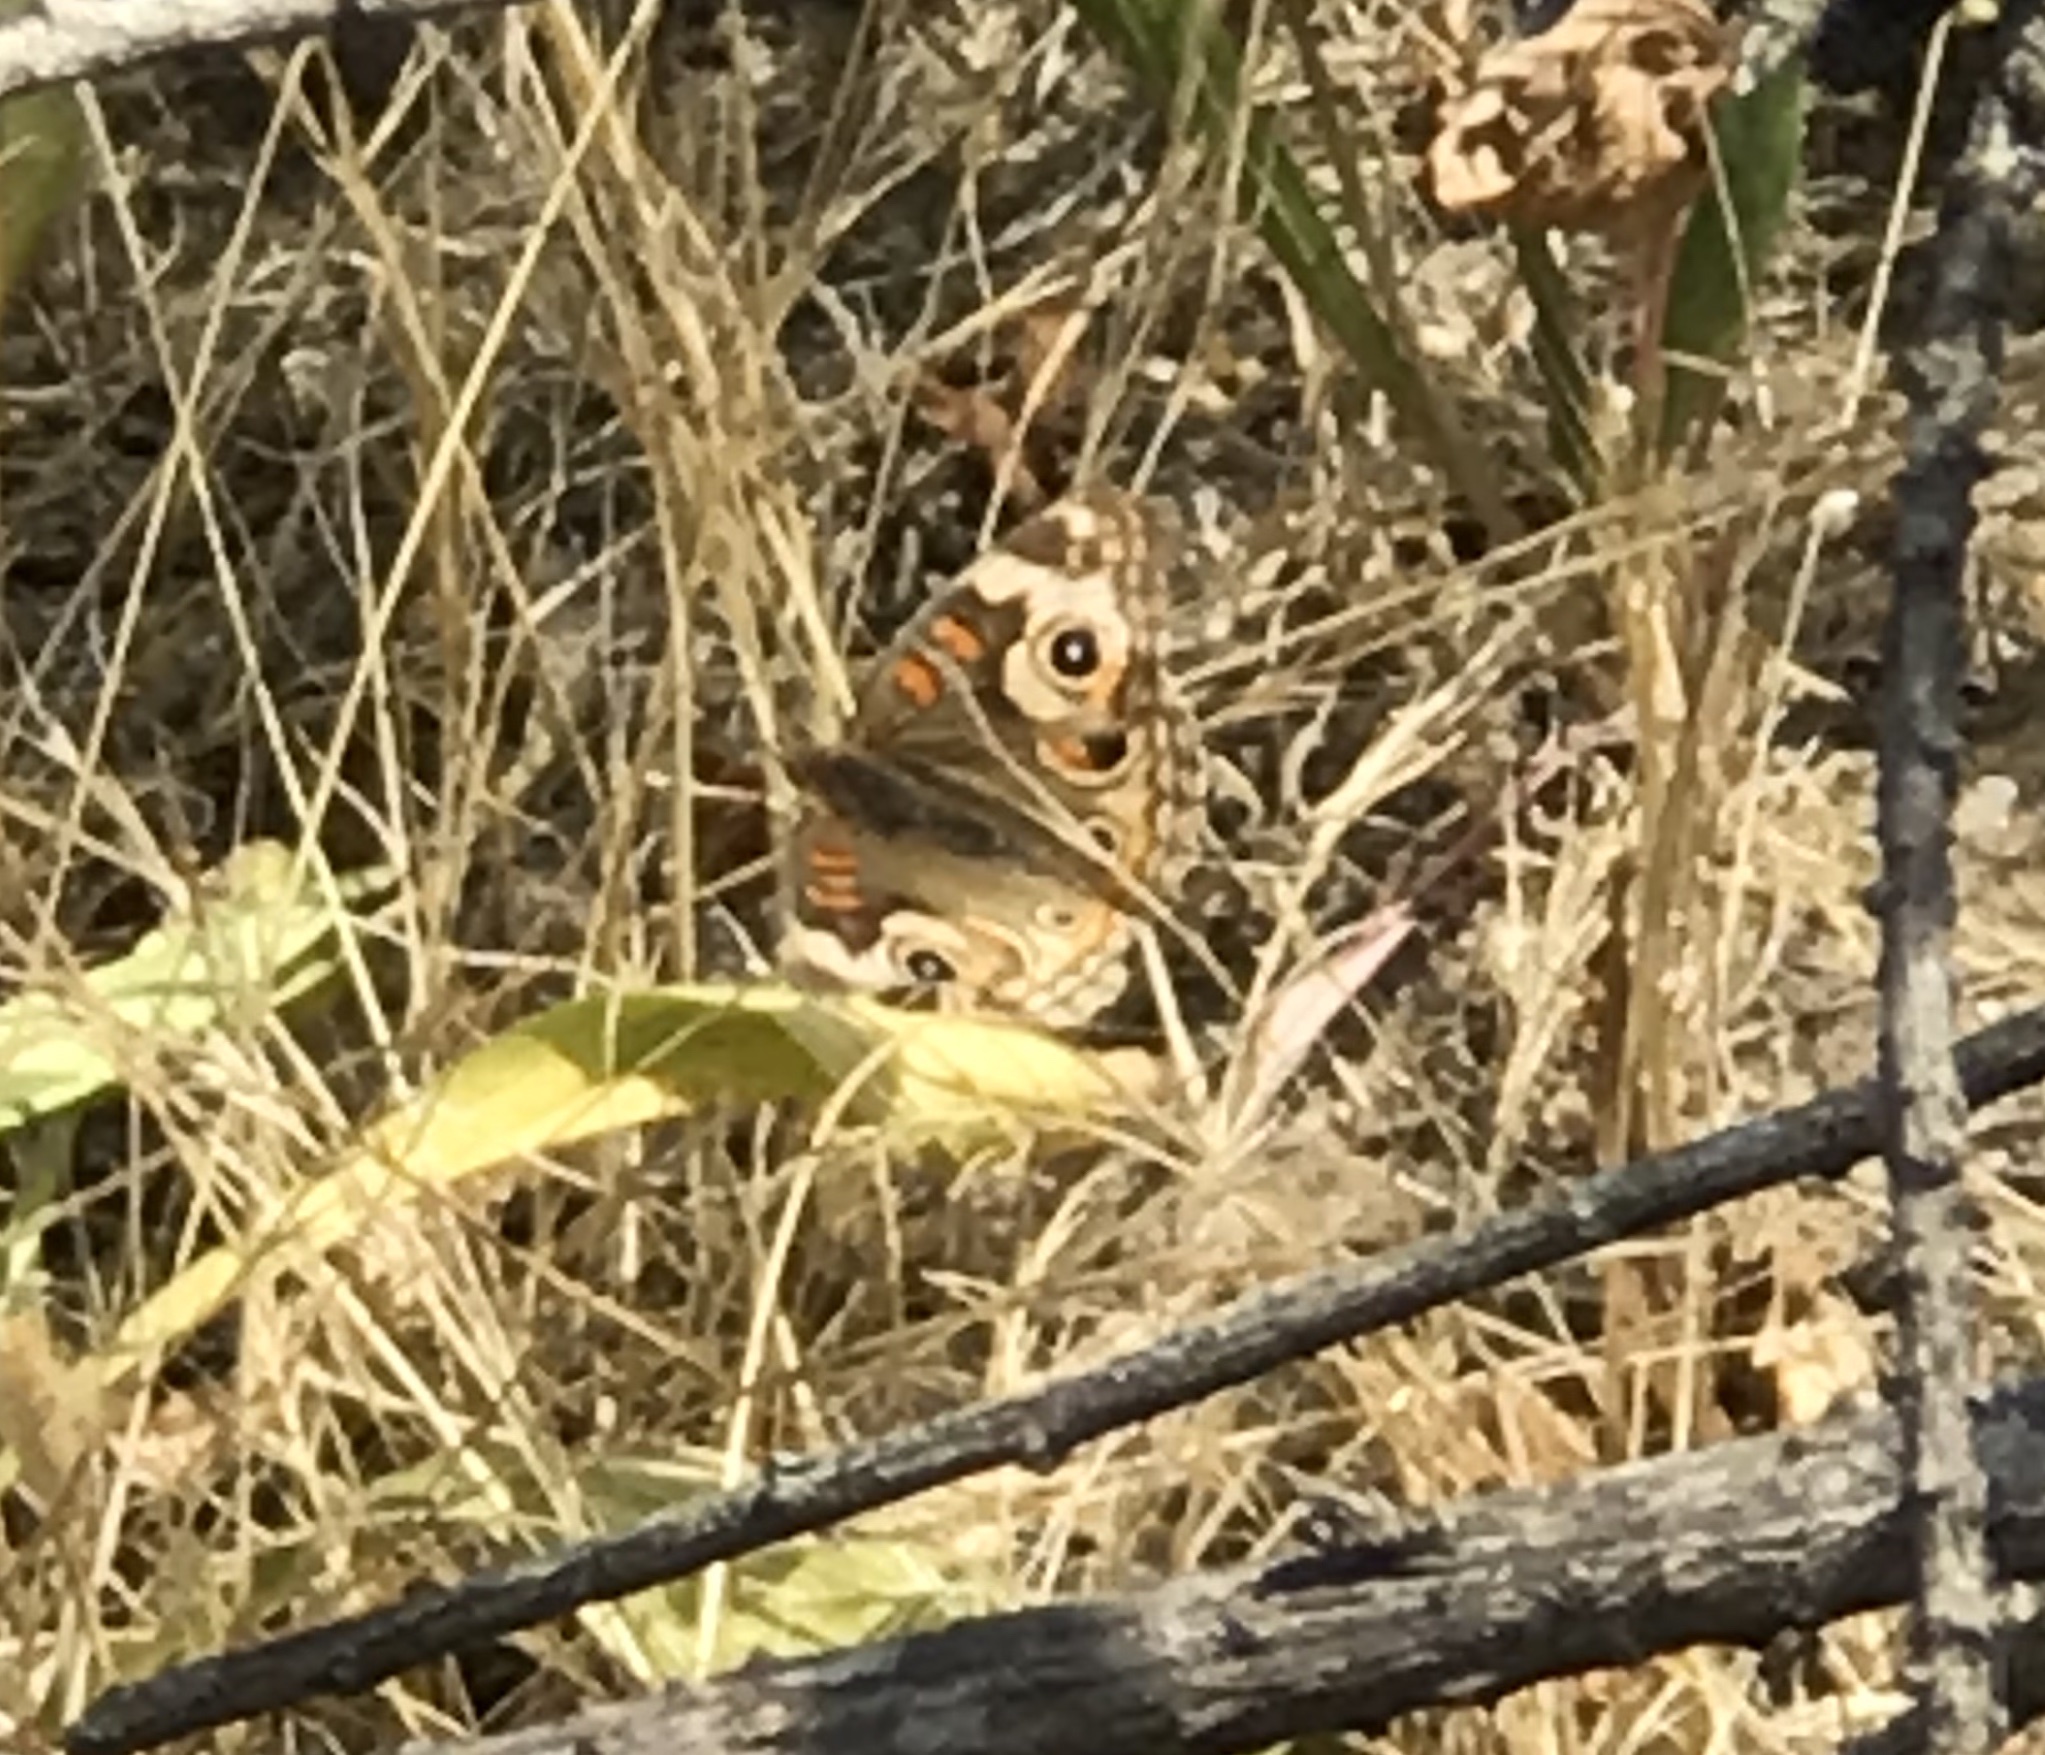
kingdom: Animalia
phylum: Arthropoda
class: Insecta
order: Lepidoptera
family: Nymphalidae
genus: Junonia
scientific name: Junonia grisea
